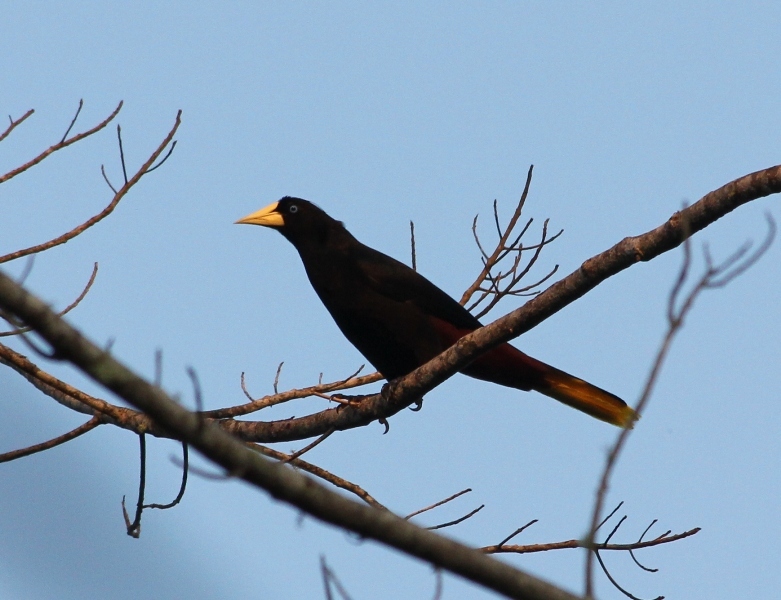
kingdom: Animalia
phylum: Chordata
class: Aves
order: Passeriformes
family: Icteridae
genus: Psarocolius
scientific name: Psarocolius decumanus
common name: Crested oropendola
